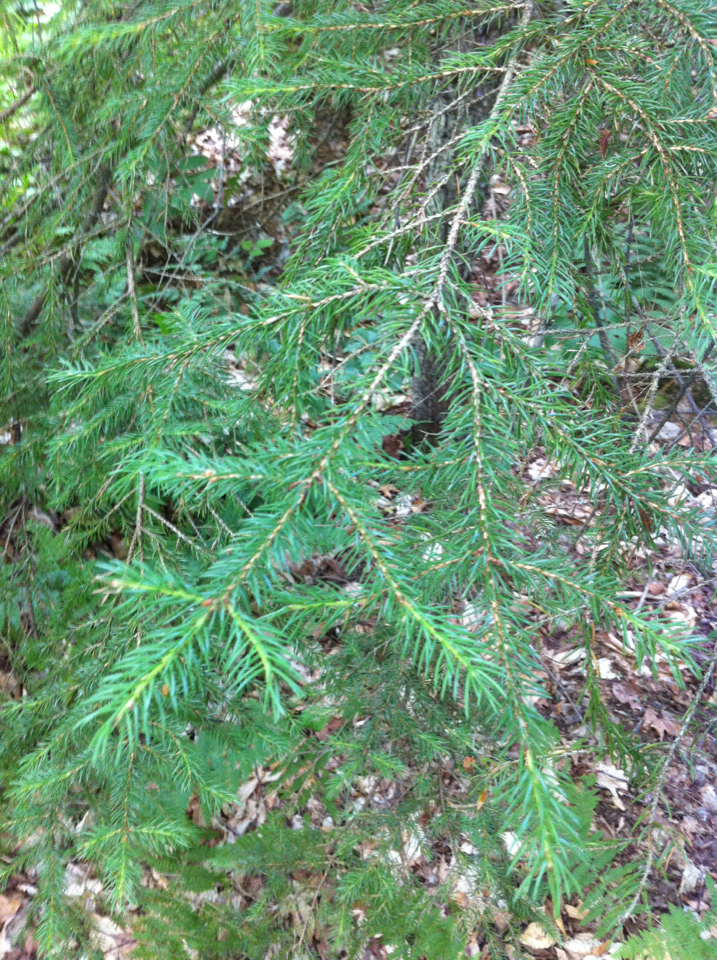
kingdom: Plantae
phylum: Tracheophyta
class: Pinopsida
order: Pinales
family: Pinaceae
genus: Picea
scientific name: Picea rubens
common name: Red spruce
